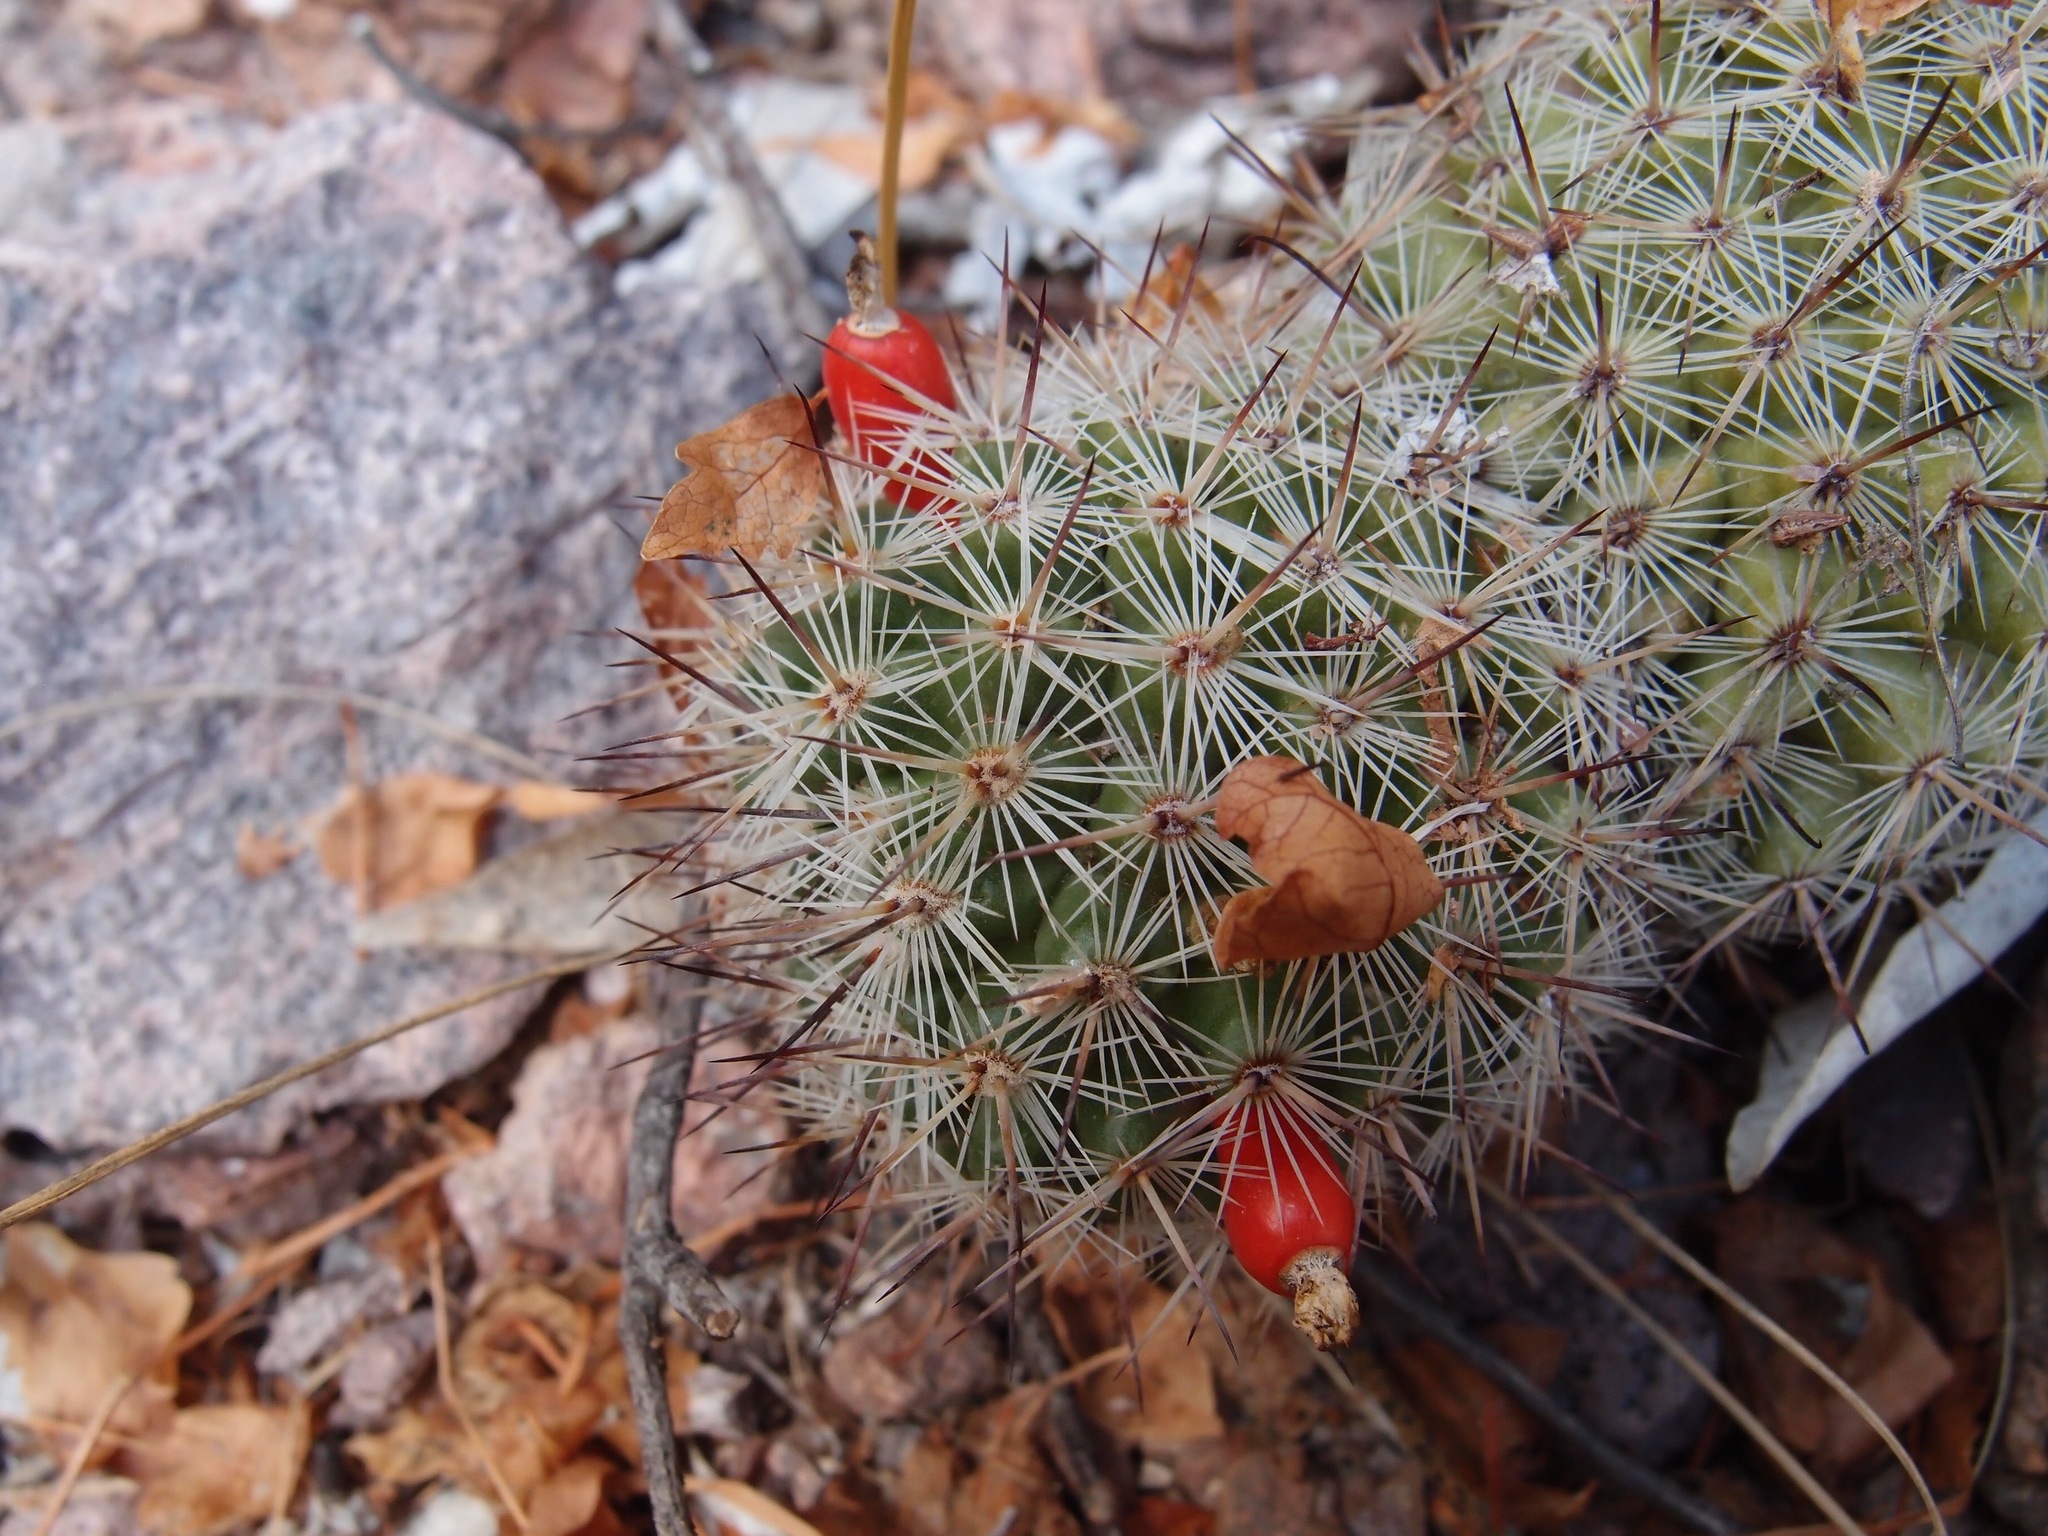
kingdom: Plantae
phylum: Tracheophyta
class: Magnoliopsida
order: Caryophyllales
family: Cactaceae
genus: Cochemiea
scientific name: Cochemiea sheldonii
